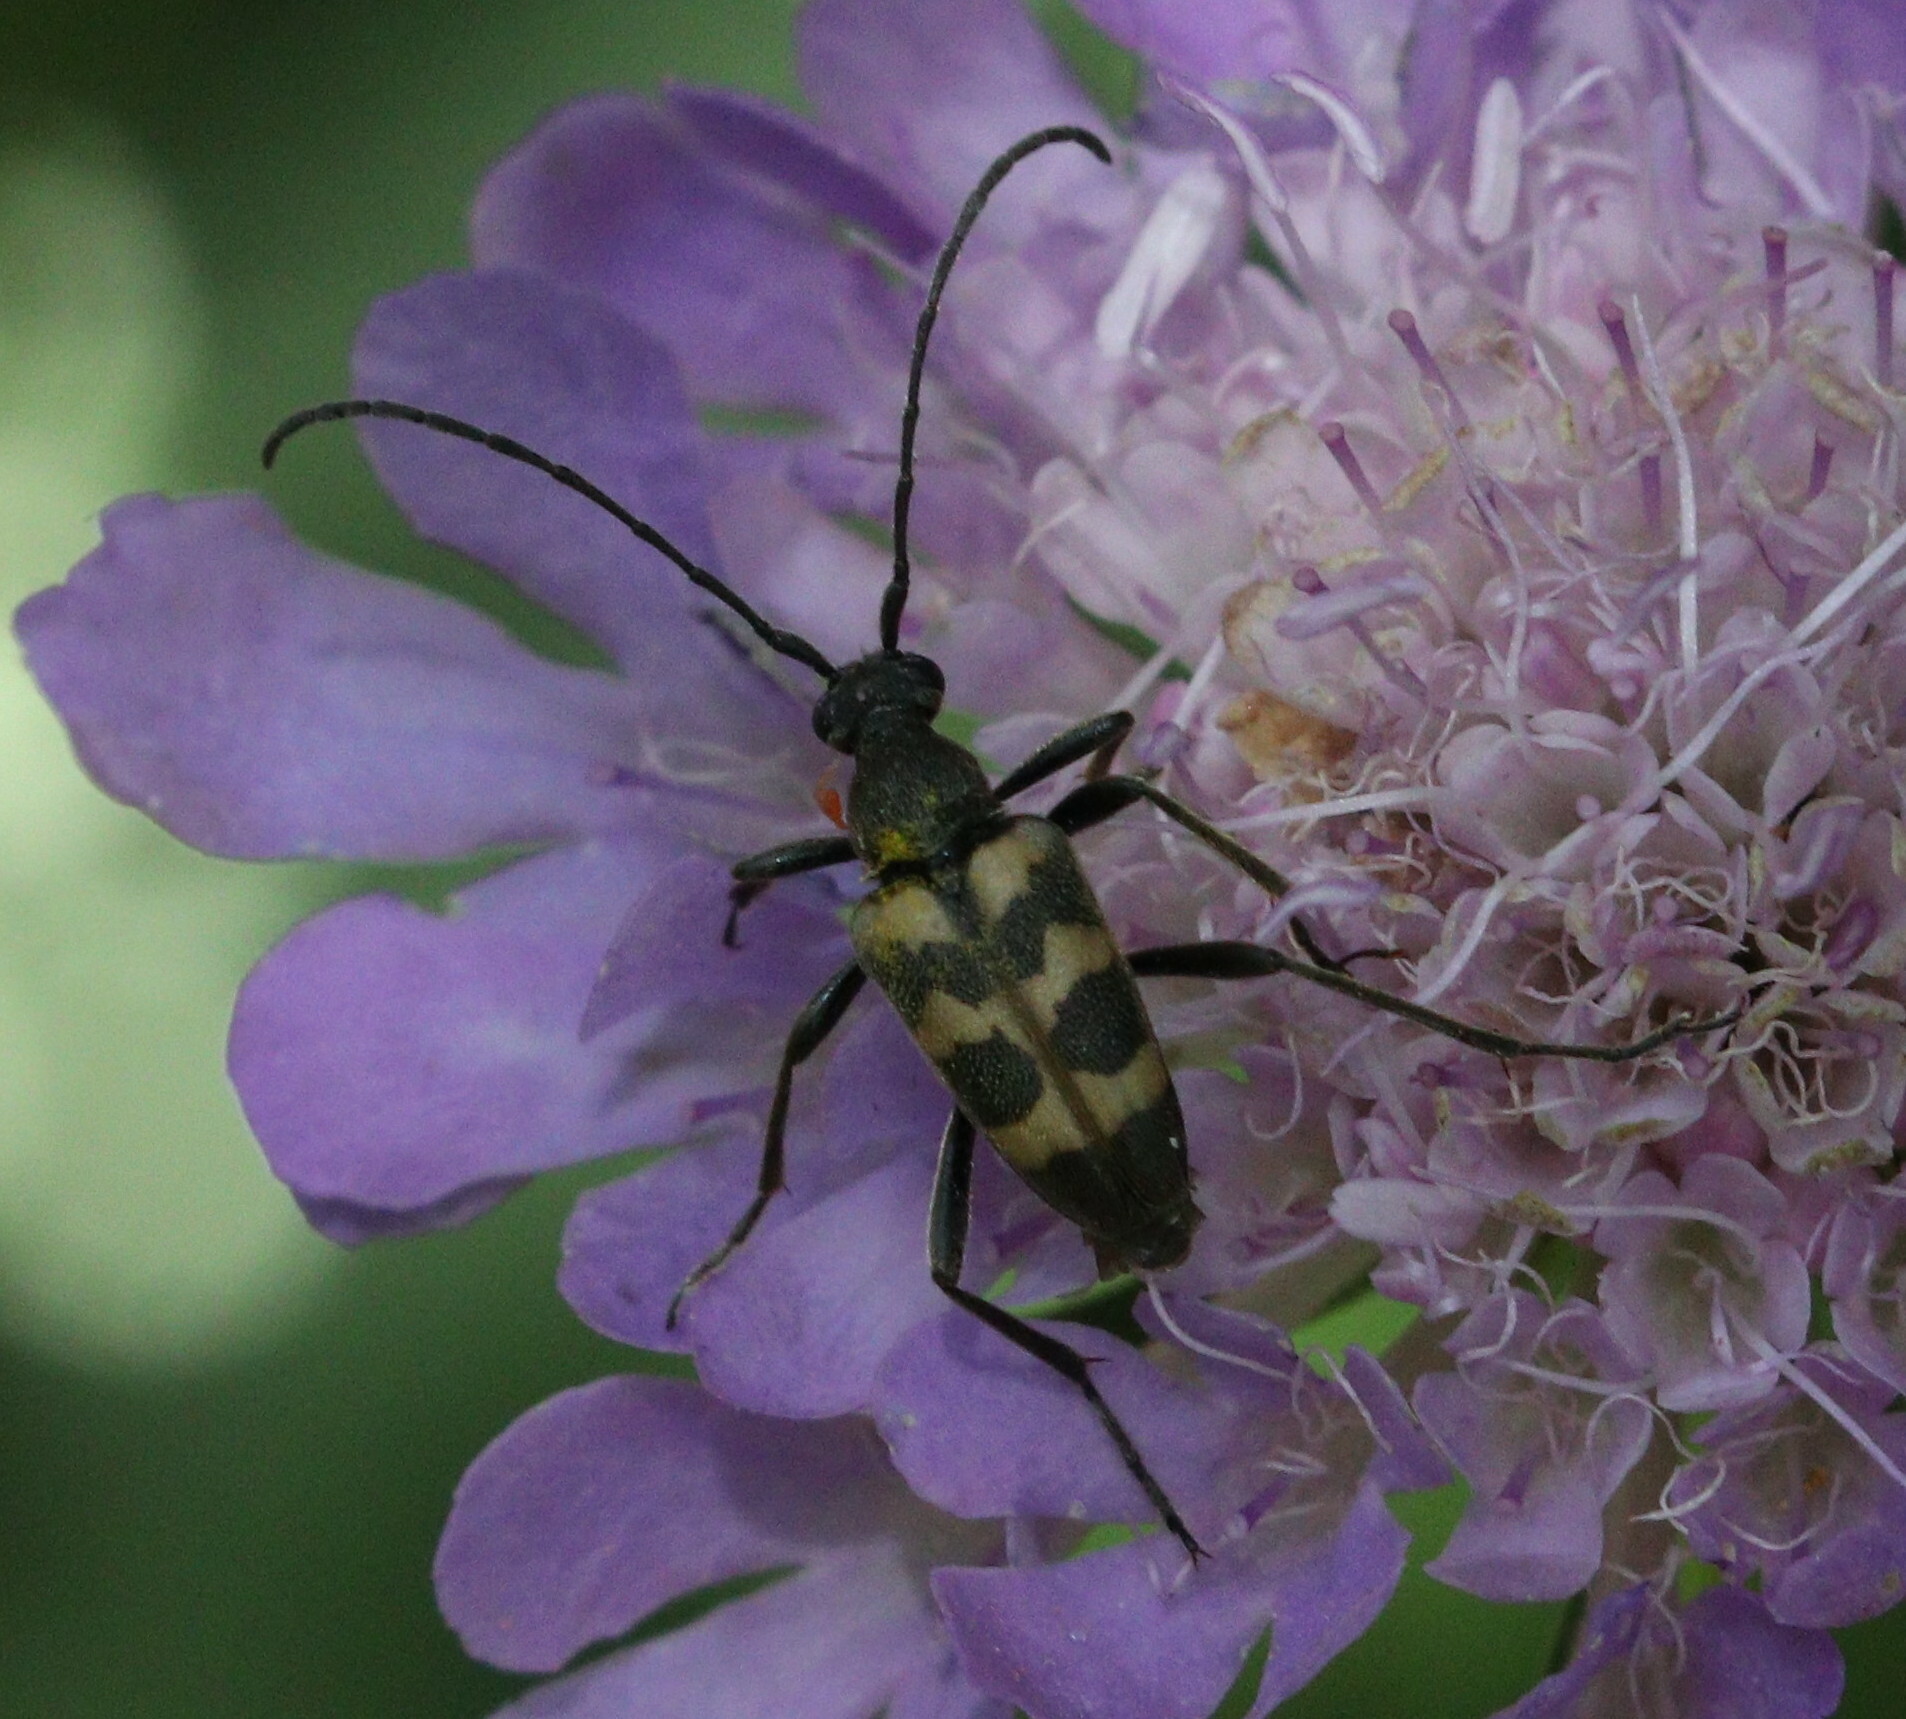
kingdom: Animalia
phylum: Arthropoda
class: Insecta
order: Coleoptera
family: Cerambycidae
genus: Pachytodes
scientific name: Pachytodes cerambyciformis
